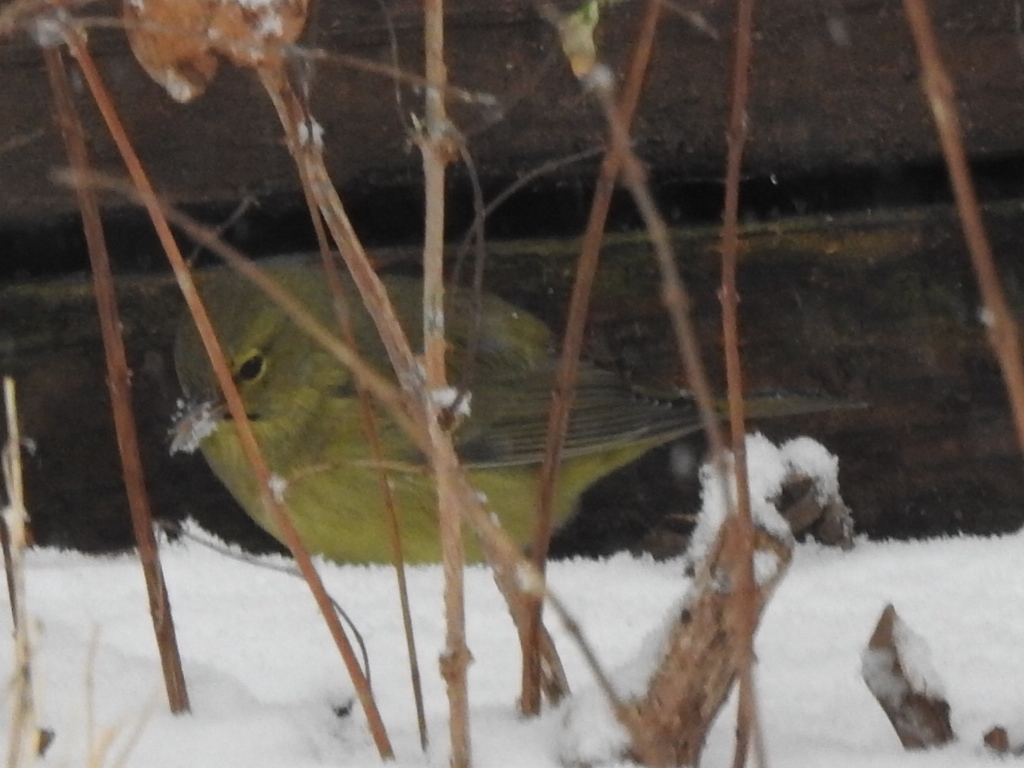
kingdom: Animalia
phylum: Chordata
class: Aves
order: Passeriformes
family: Parulidae
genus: Leiothlypis
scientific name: Leiothlypis celata
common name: Orange-crowned warbler
